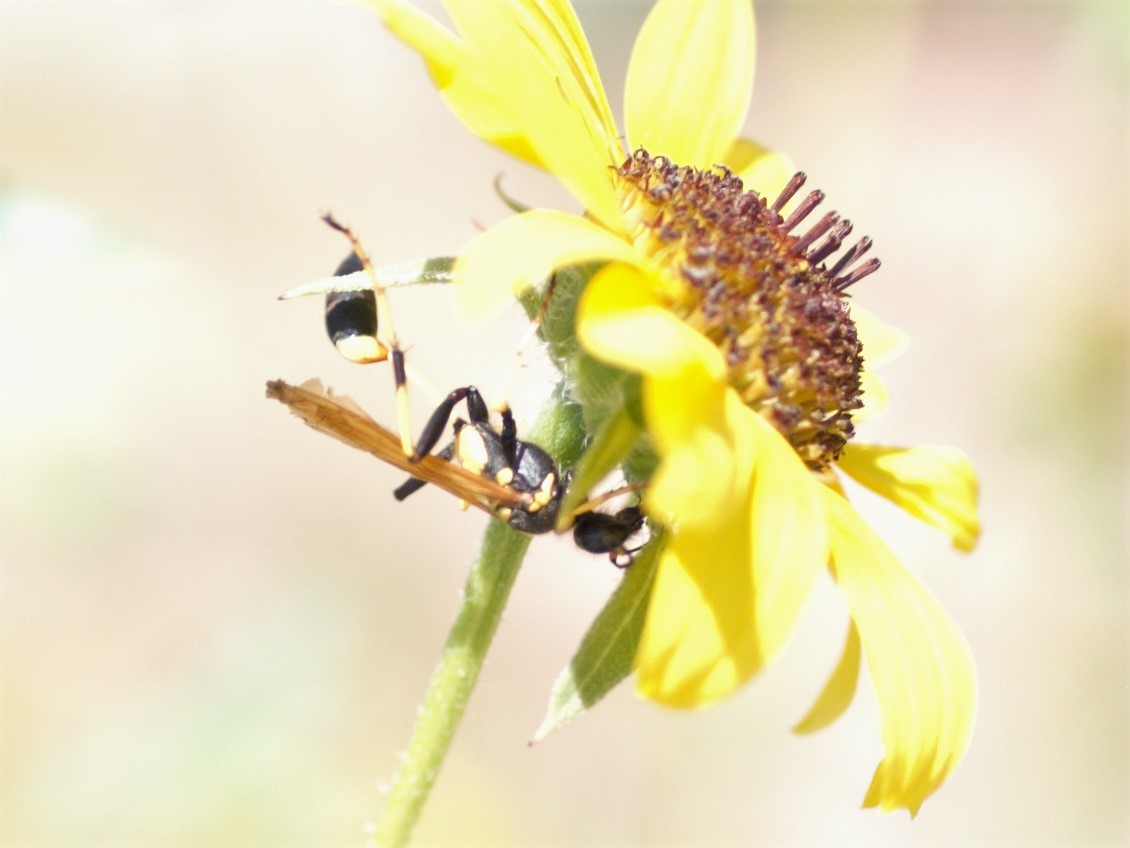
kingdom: Animalia
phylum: Arthropoda
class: Insecta
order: Hymenoptera
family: Sphecidae
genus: Sceliphron
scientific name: Sceliphron caementarium
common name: Mud dauber
